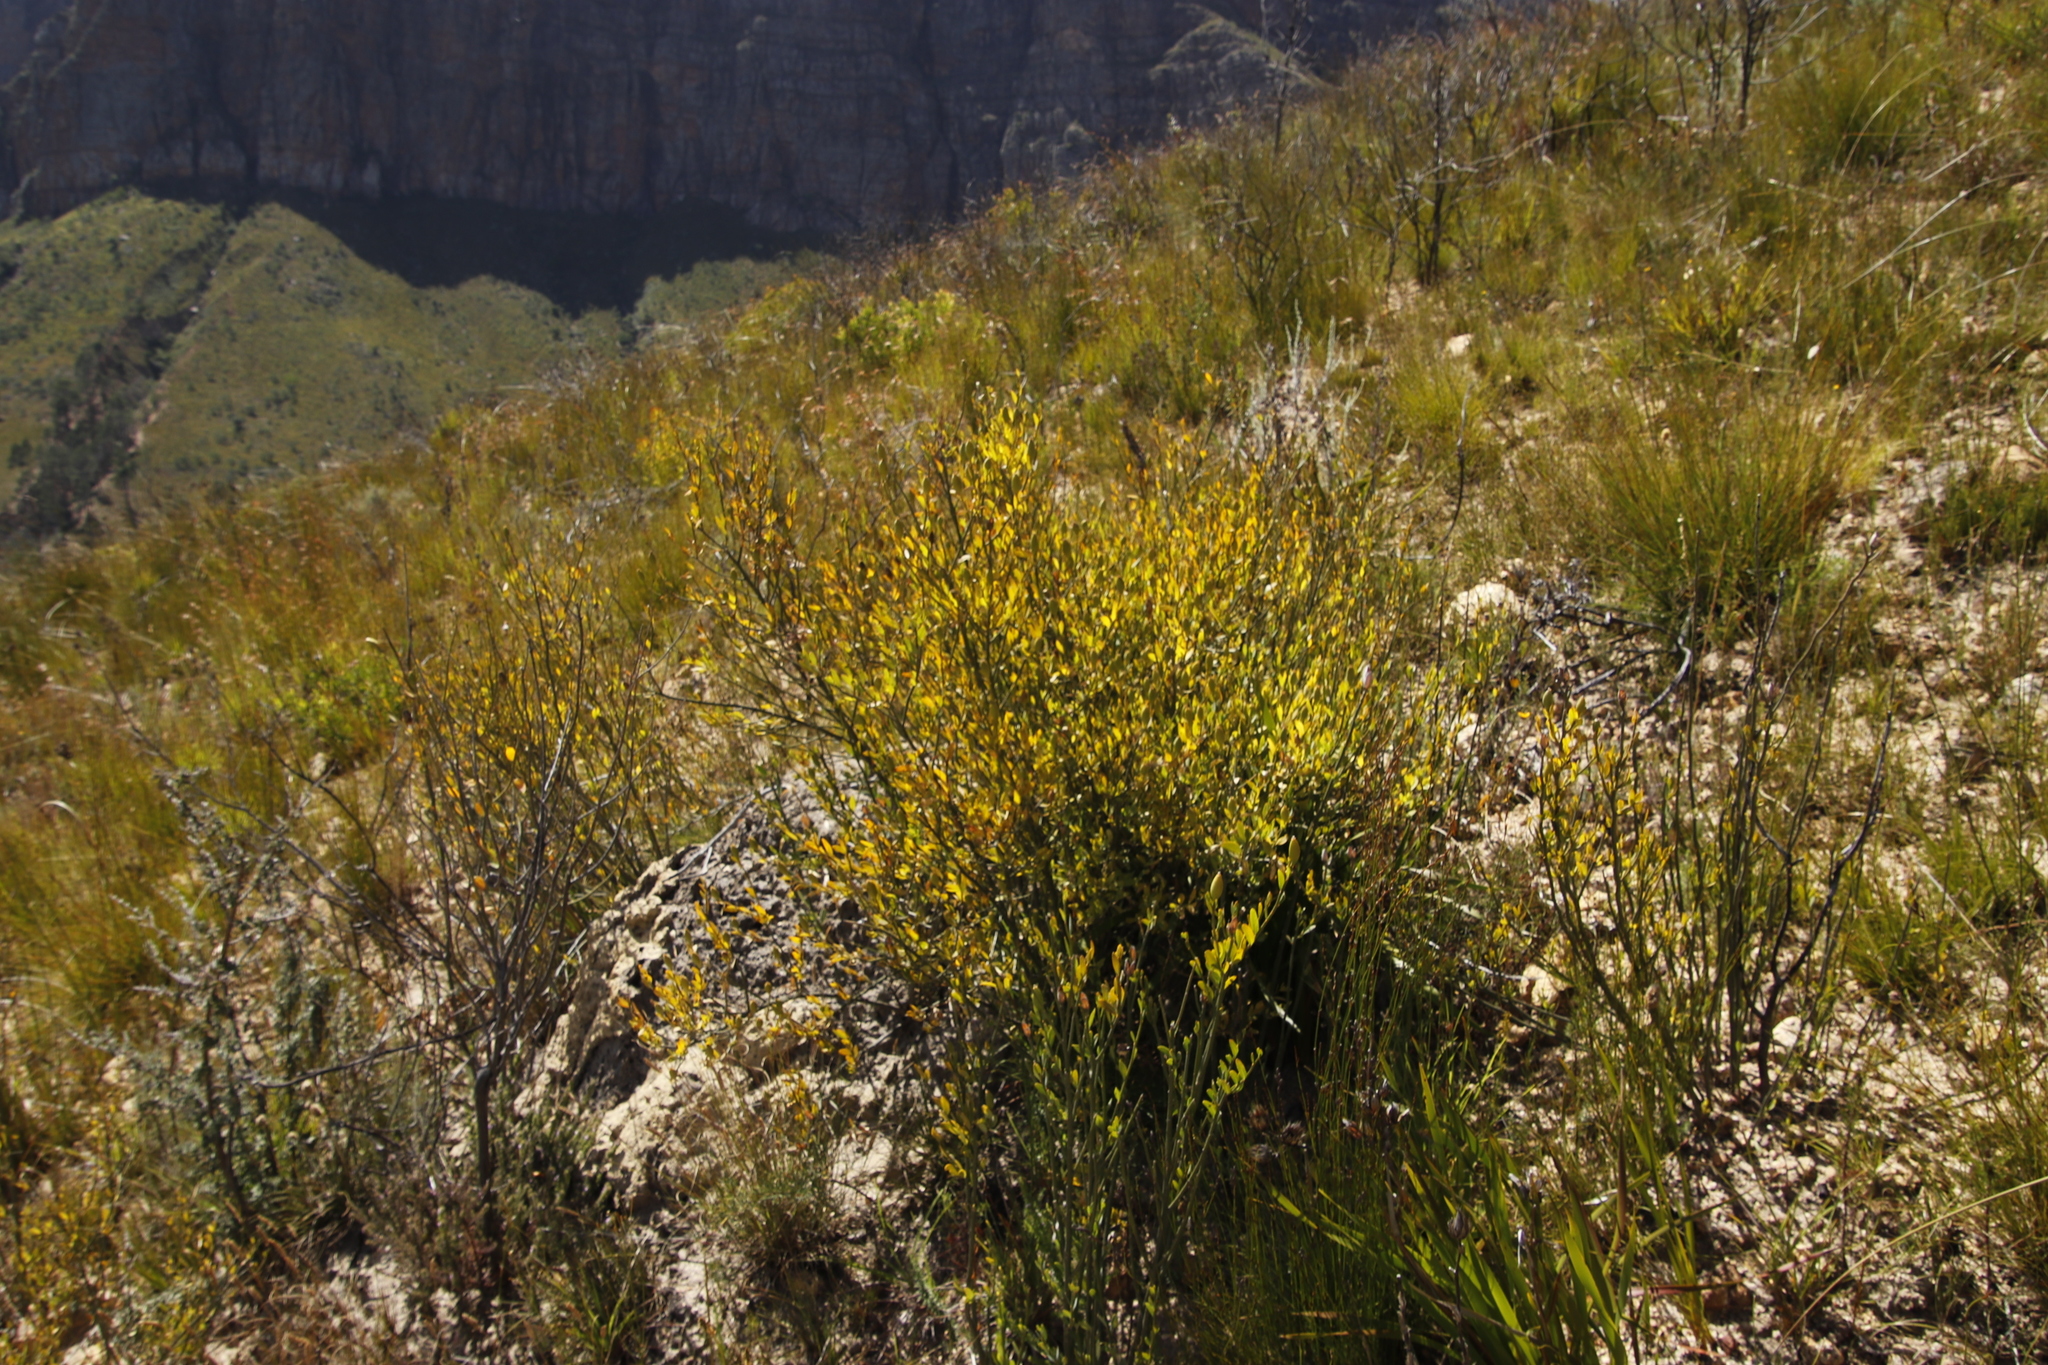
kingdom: Plantae
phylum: Tracheophyta
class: Magnoliopsida
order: Solanales
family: Montiniaceae
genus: Montinia
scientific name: Montinia caryophyllacea
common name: Wild clove-bush
